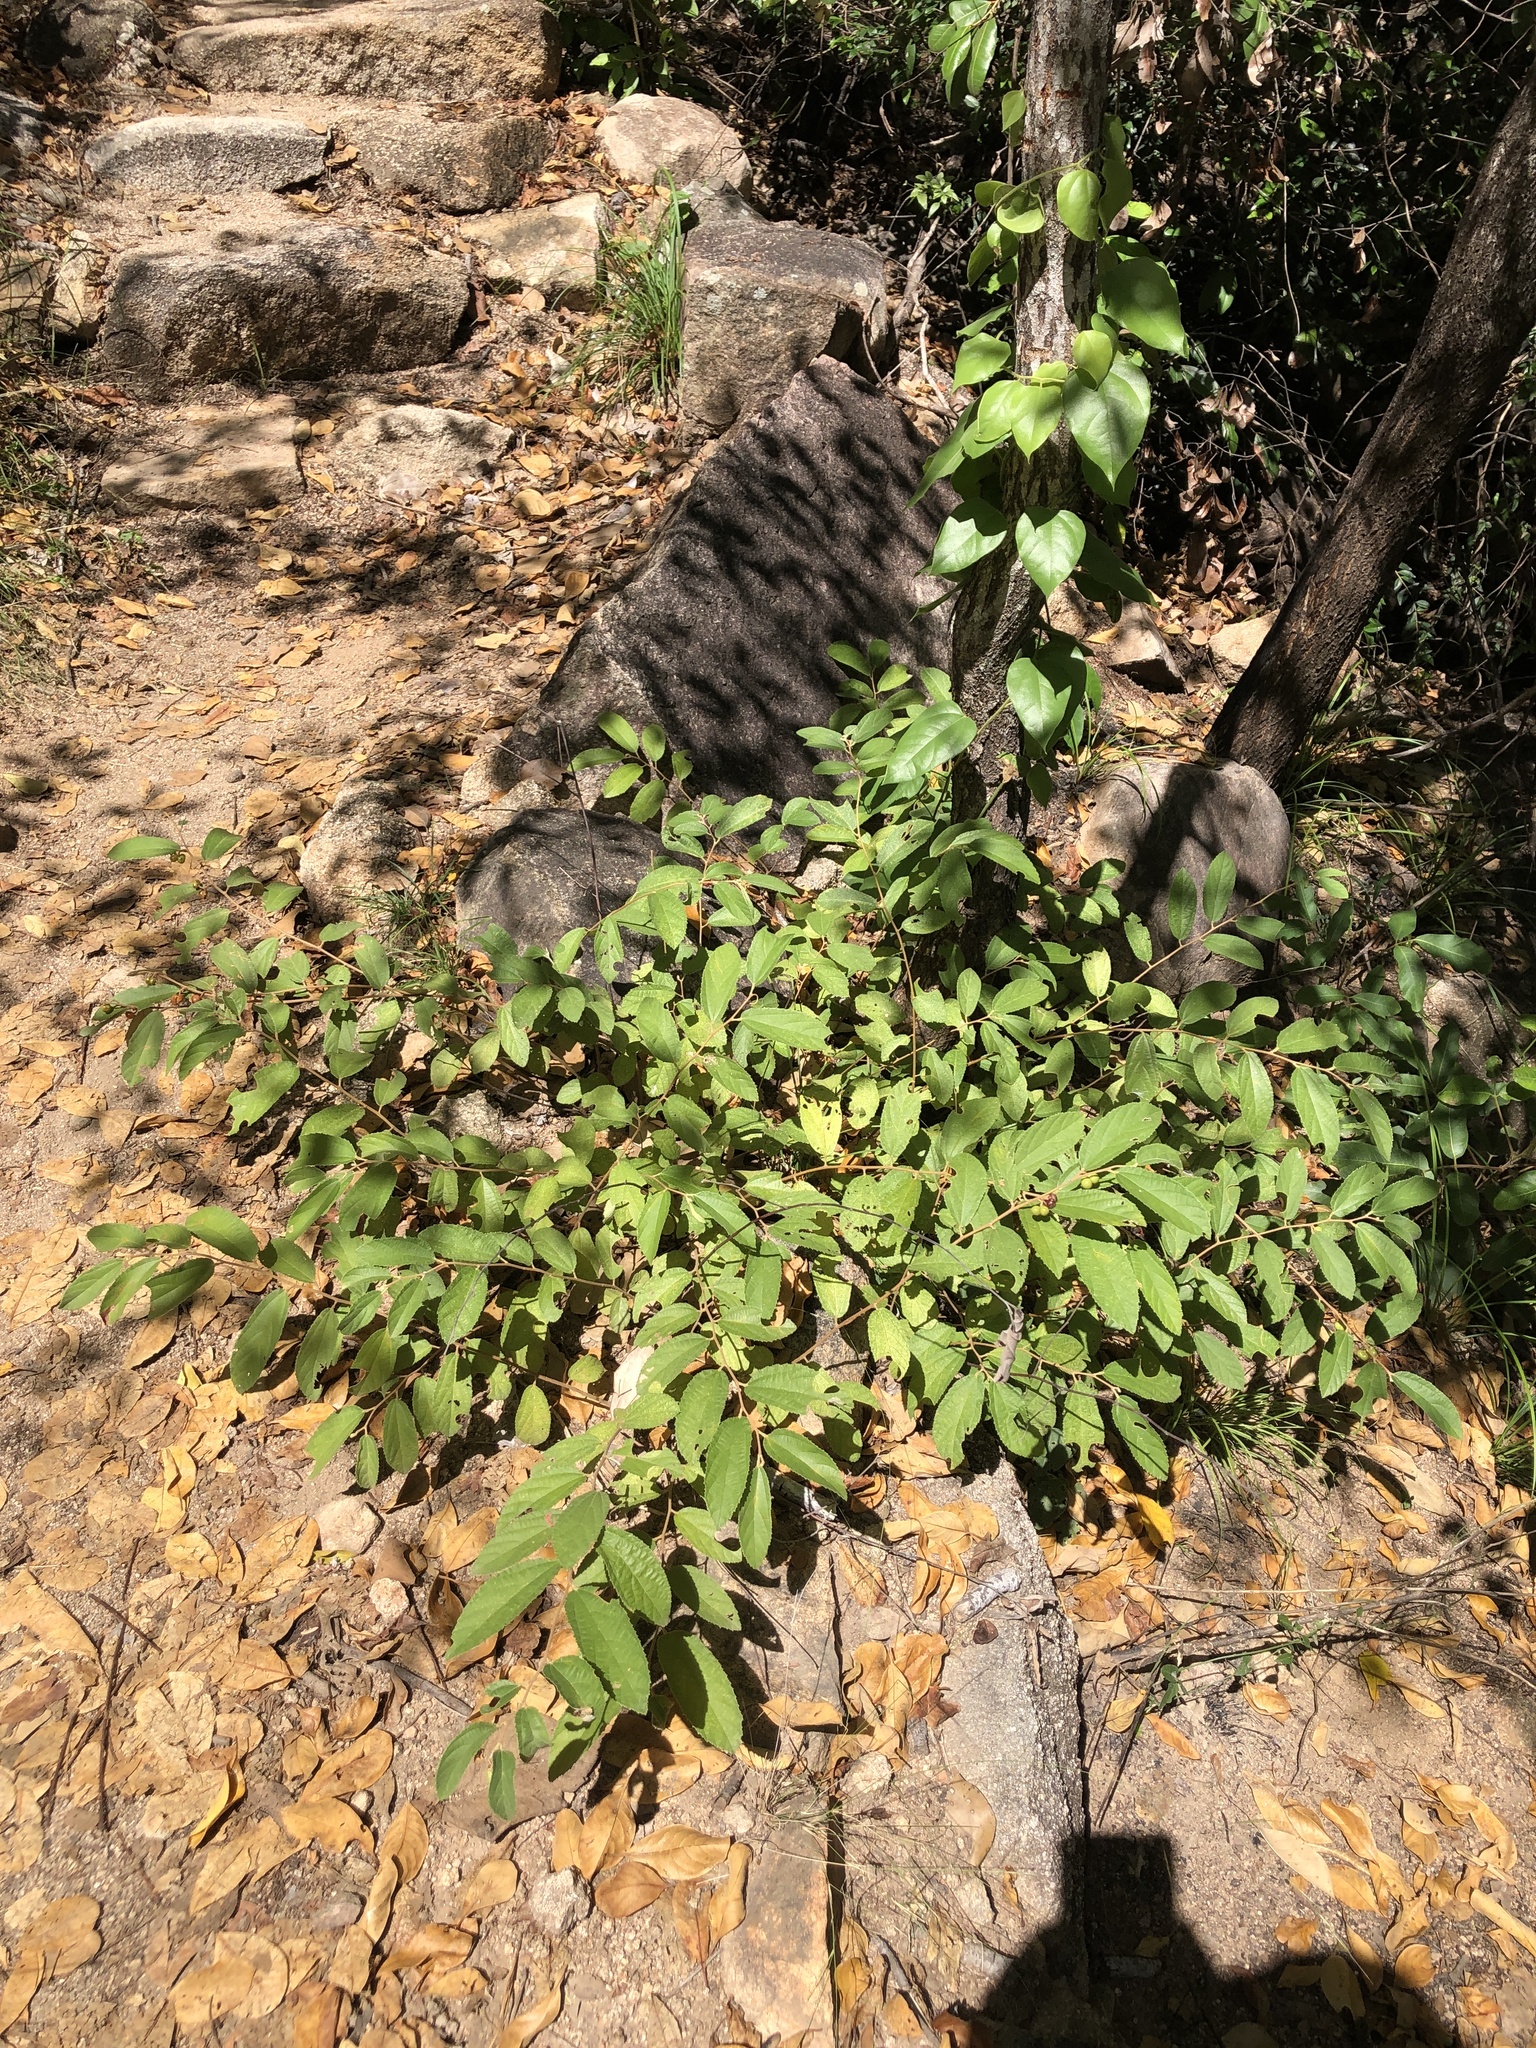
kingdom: Plantae
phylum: Tracheophyta
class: Magnoliopsida
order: Malvales
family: Malvaceae
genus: Grewia
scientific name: Grewia savannicola
